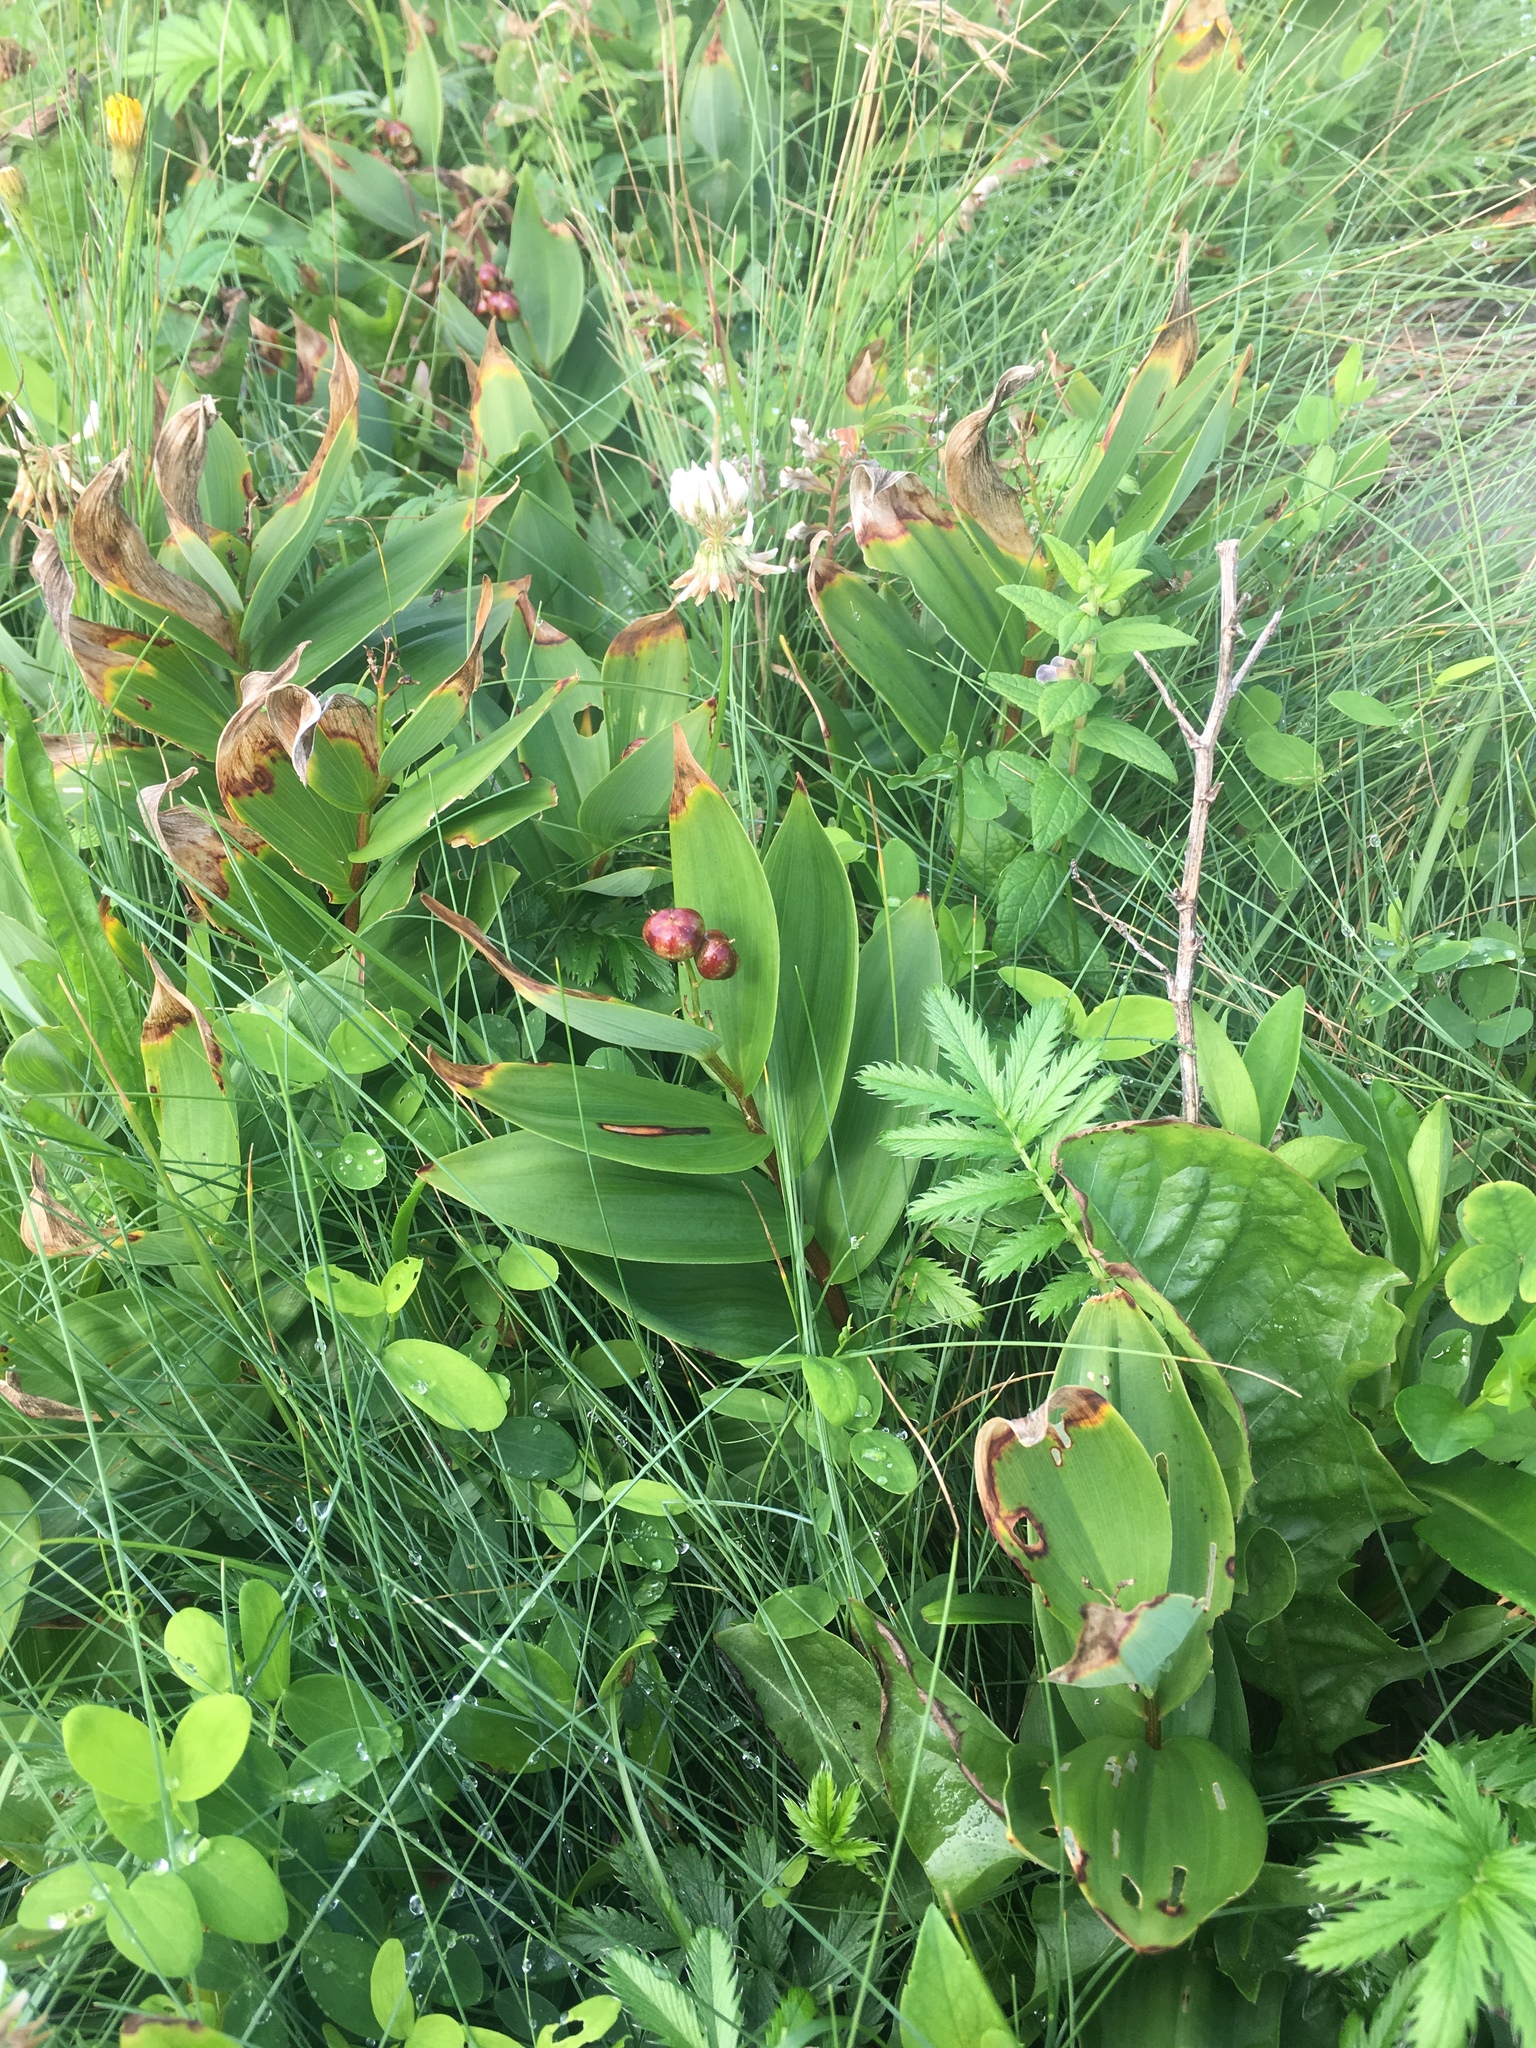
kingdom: Plantae
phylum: Tracheophyta
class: Liliopsida
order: Asparagales
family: Asparagaceae
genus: Maianthemum
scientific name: Maianthemum stellatum
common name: Little false solomon's seal
